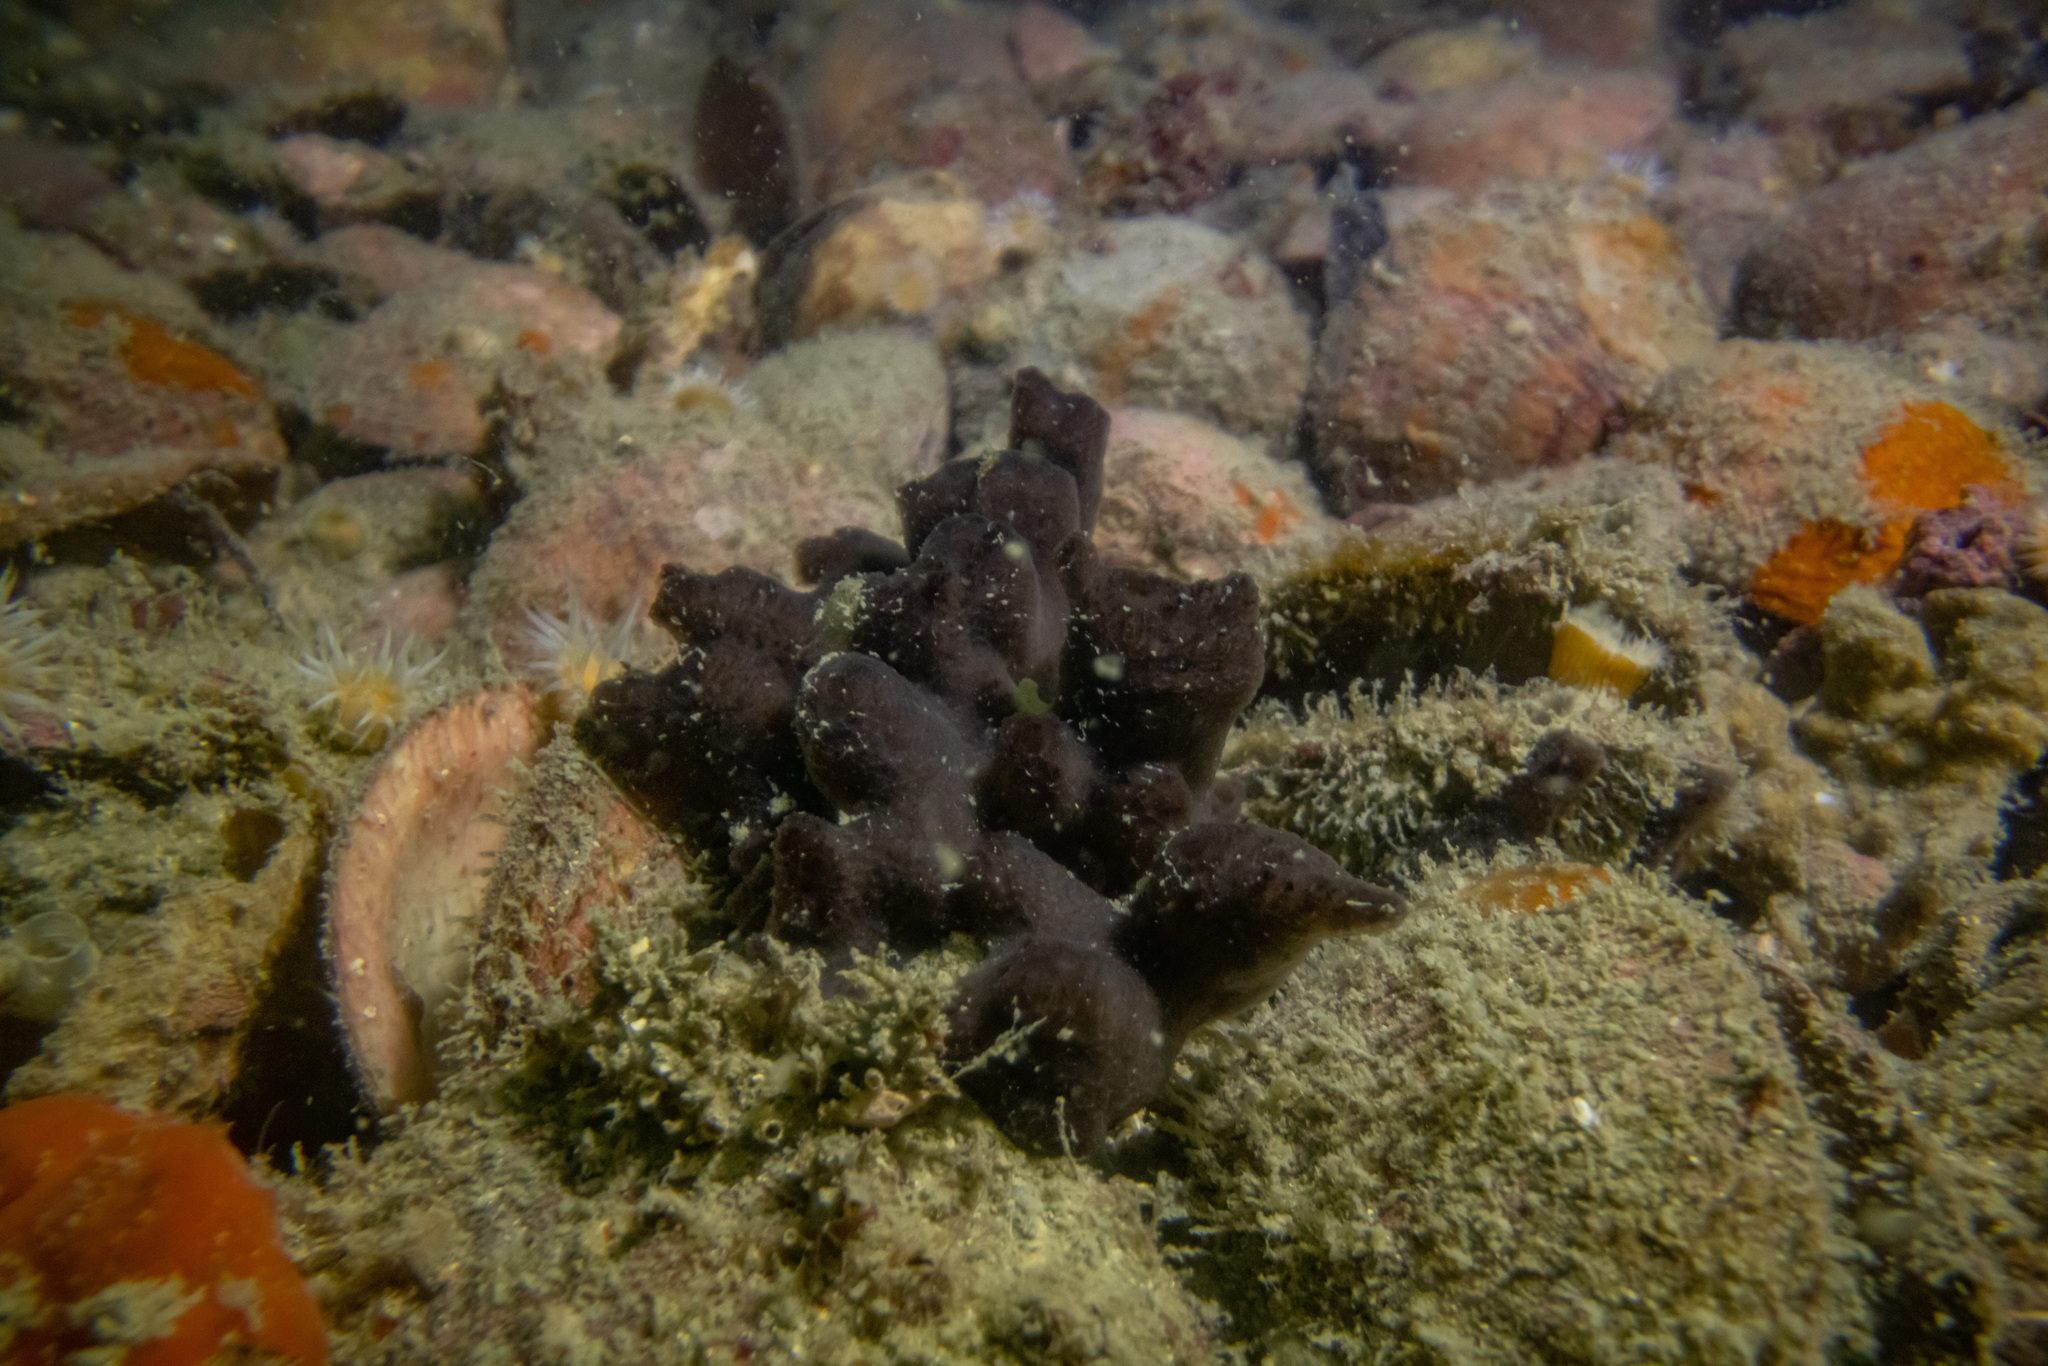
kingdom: Animalia
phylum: Porifera
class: Demospongiae
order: Biemnida
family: Biemnidae
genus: Biemna
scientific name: Biemna rufescens
